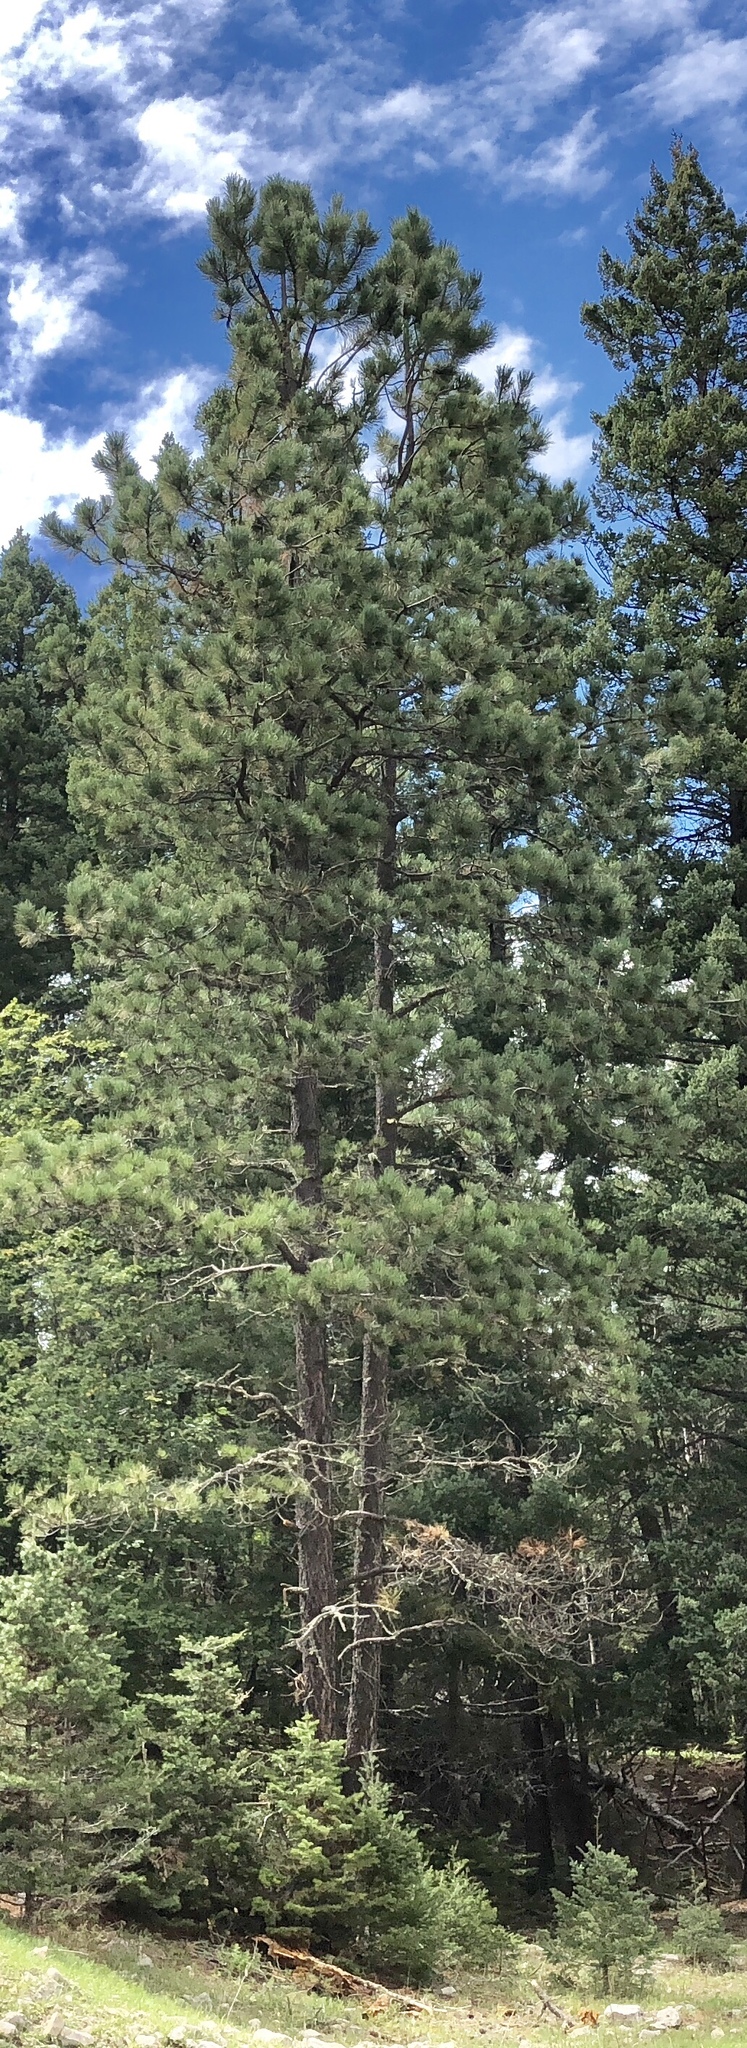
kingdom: Plantae
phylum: Tracheophyta
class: Pinopsida
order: Pinales
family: Pinaceae
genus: Pinus
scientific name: Pinus ponderosa
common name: Western yellow-pine
